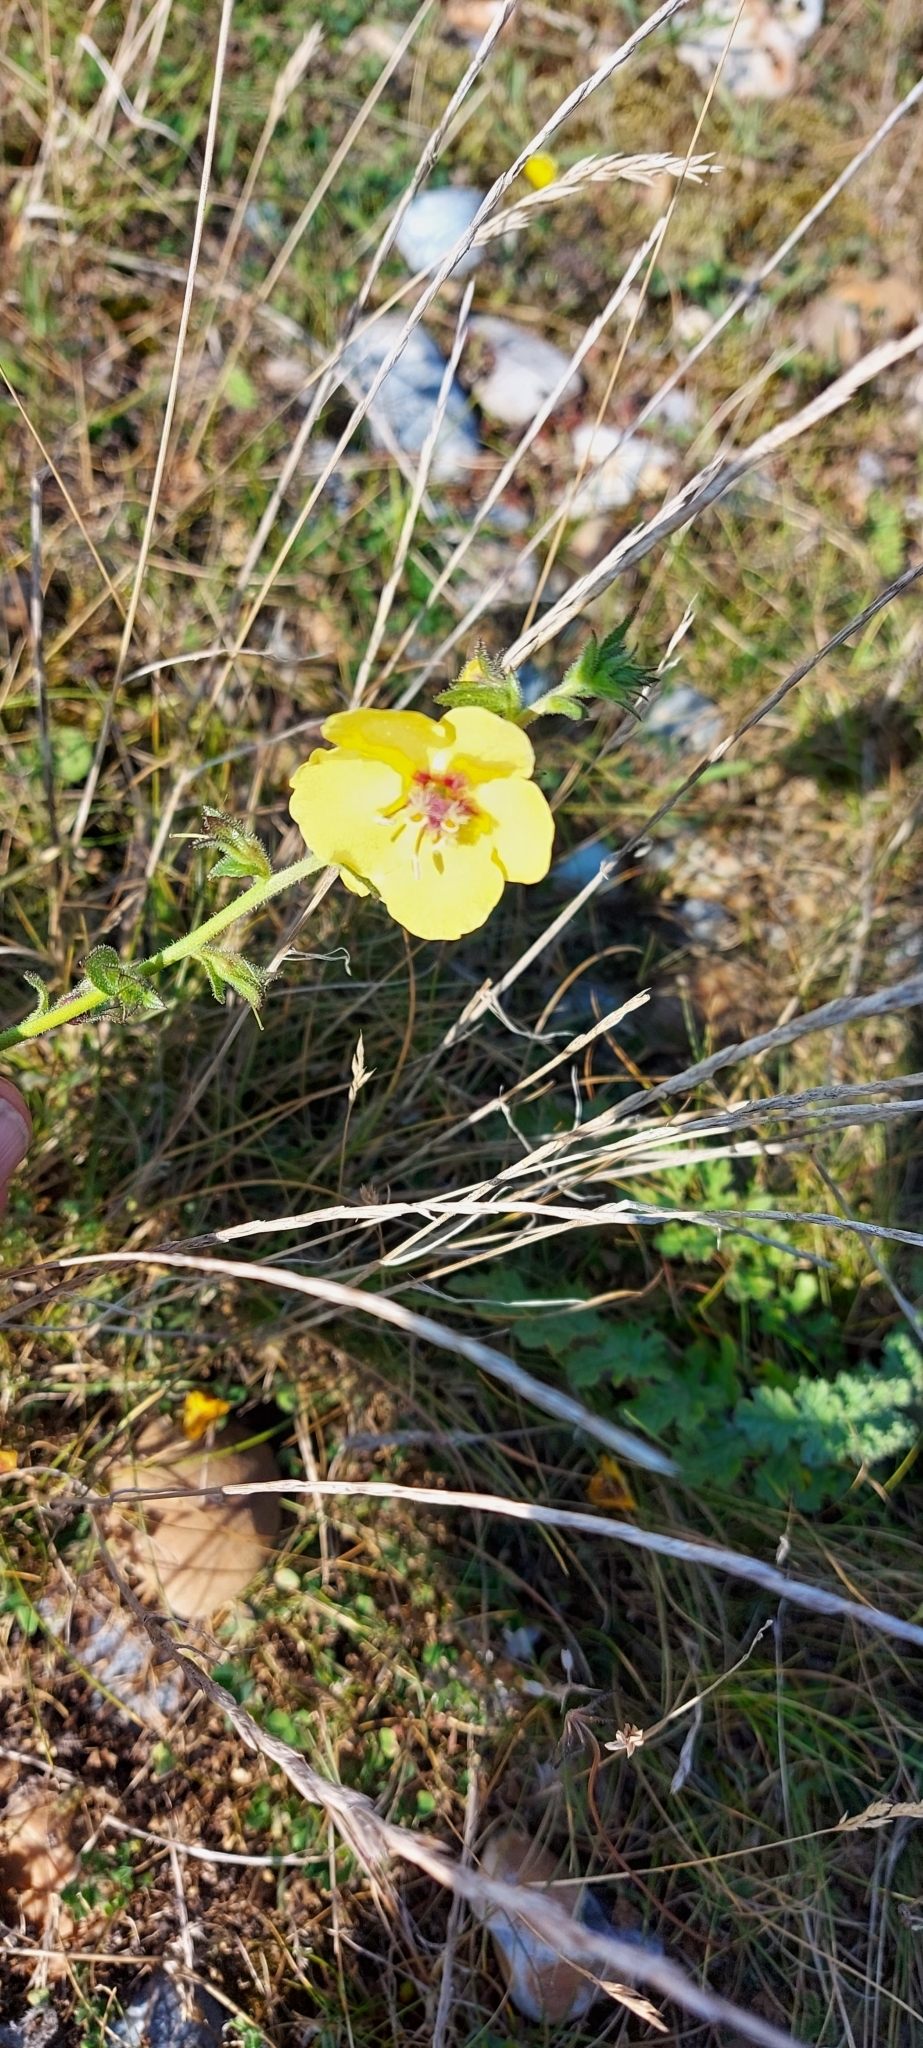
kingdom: Plantae
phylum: Tracheophyta
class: Magnoliopsida
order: Lamiales
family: Scrophulariaceae
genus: Verbascum
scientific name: Verbascum virgatum
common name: Twiggy mullein
